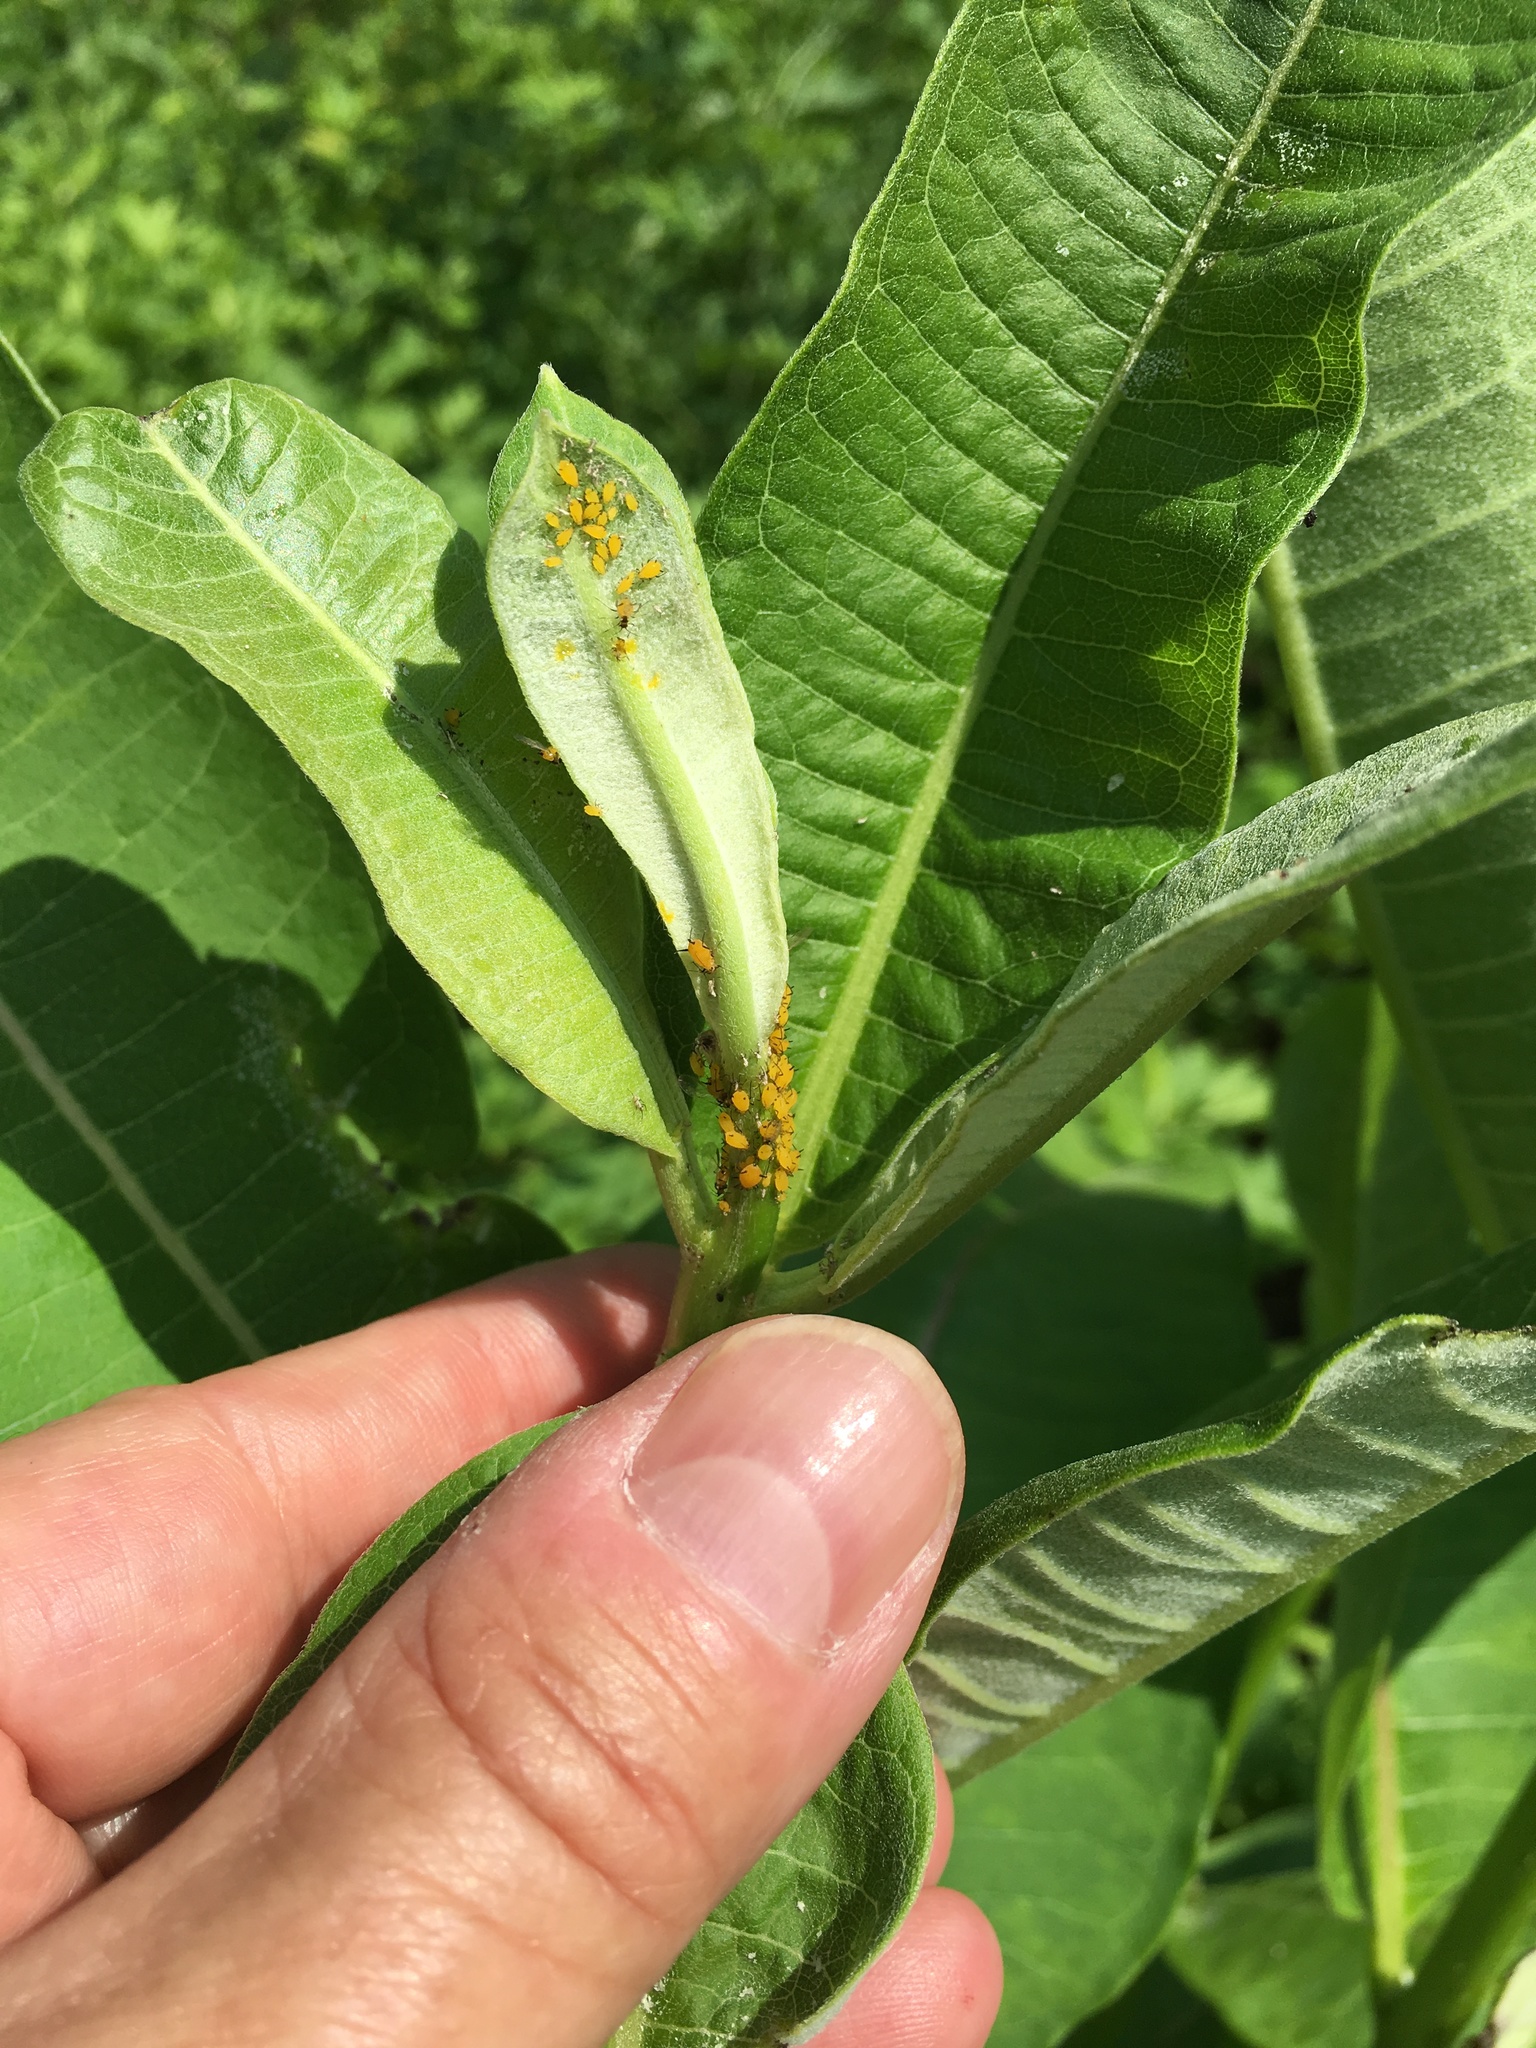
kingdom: Animalia
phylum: Arthropoda
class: Insecta
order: Hemiptera
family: Aphididae
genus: Aphis
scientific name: Aphis nerii
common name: Oleander aphid
